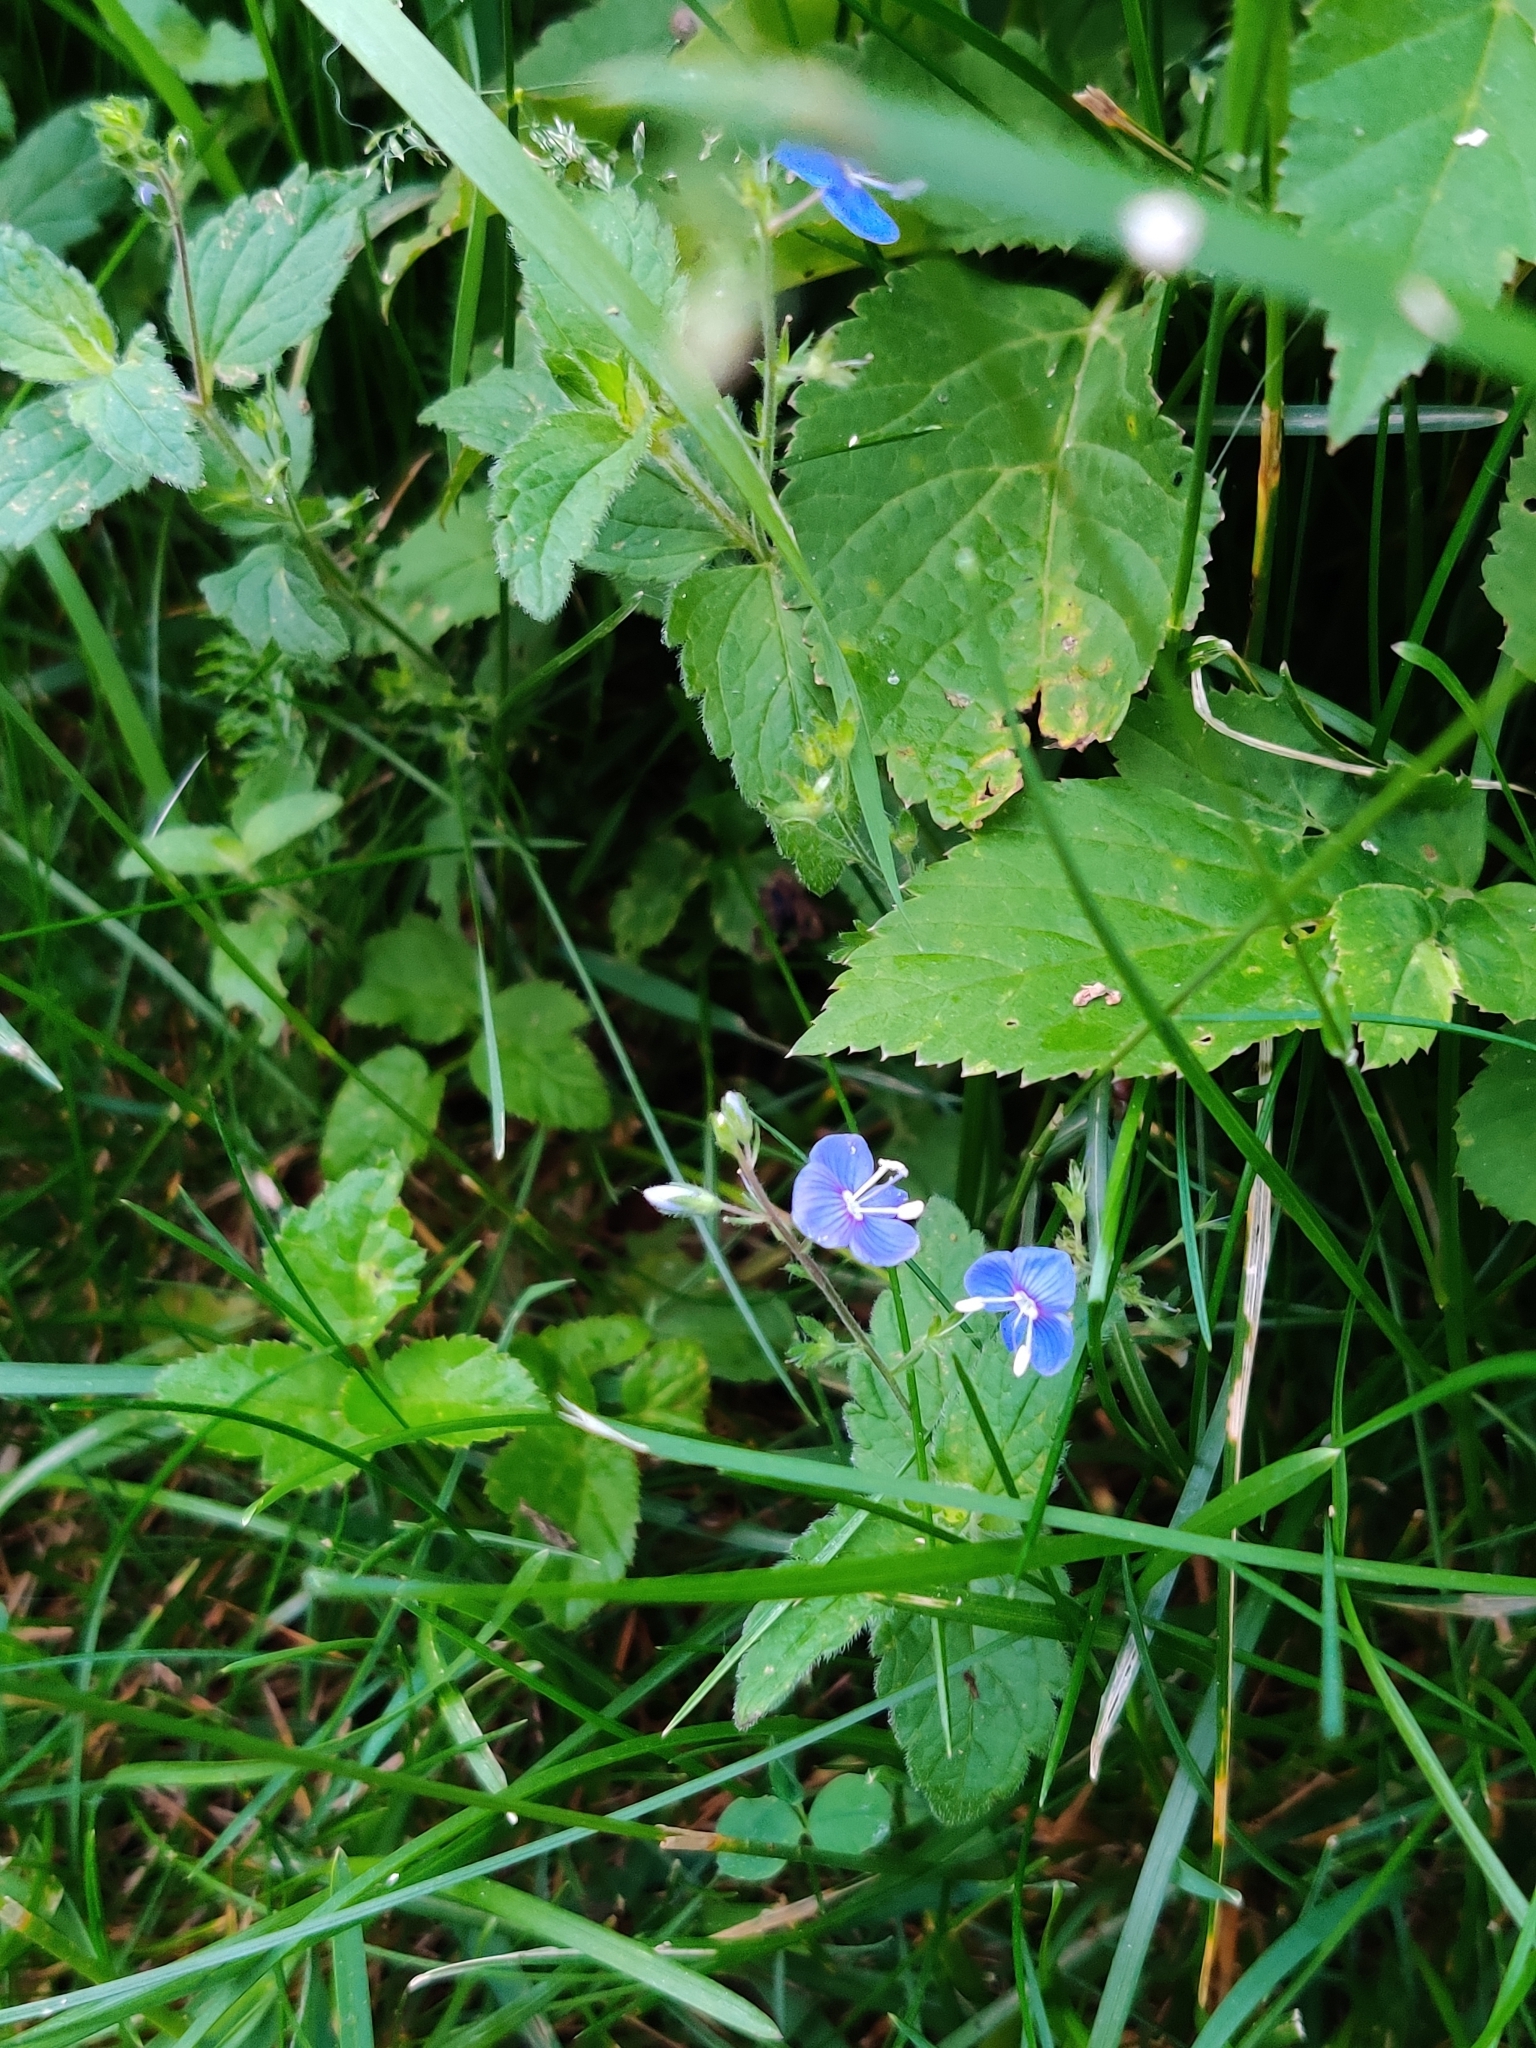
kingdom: Plantae
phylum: Tracheophyta
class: Magnoliopsida
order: Lamiales
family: Plantaginaceae
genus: Veronica
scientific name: Veronica chamaedrys
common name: Germander speedwell
